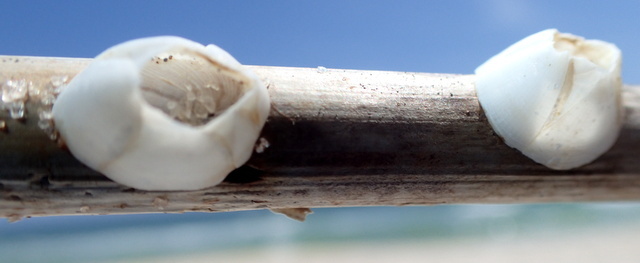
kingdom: Animalia
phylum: Arthropoda
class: Maxillopoda
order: Sessilia
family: Balanidae
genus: Amphibalanus
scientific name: Amphibalanus improvisus
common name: Bay barnacle
